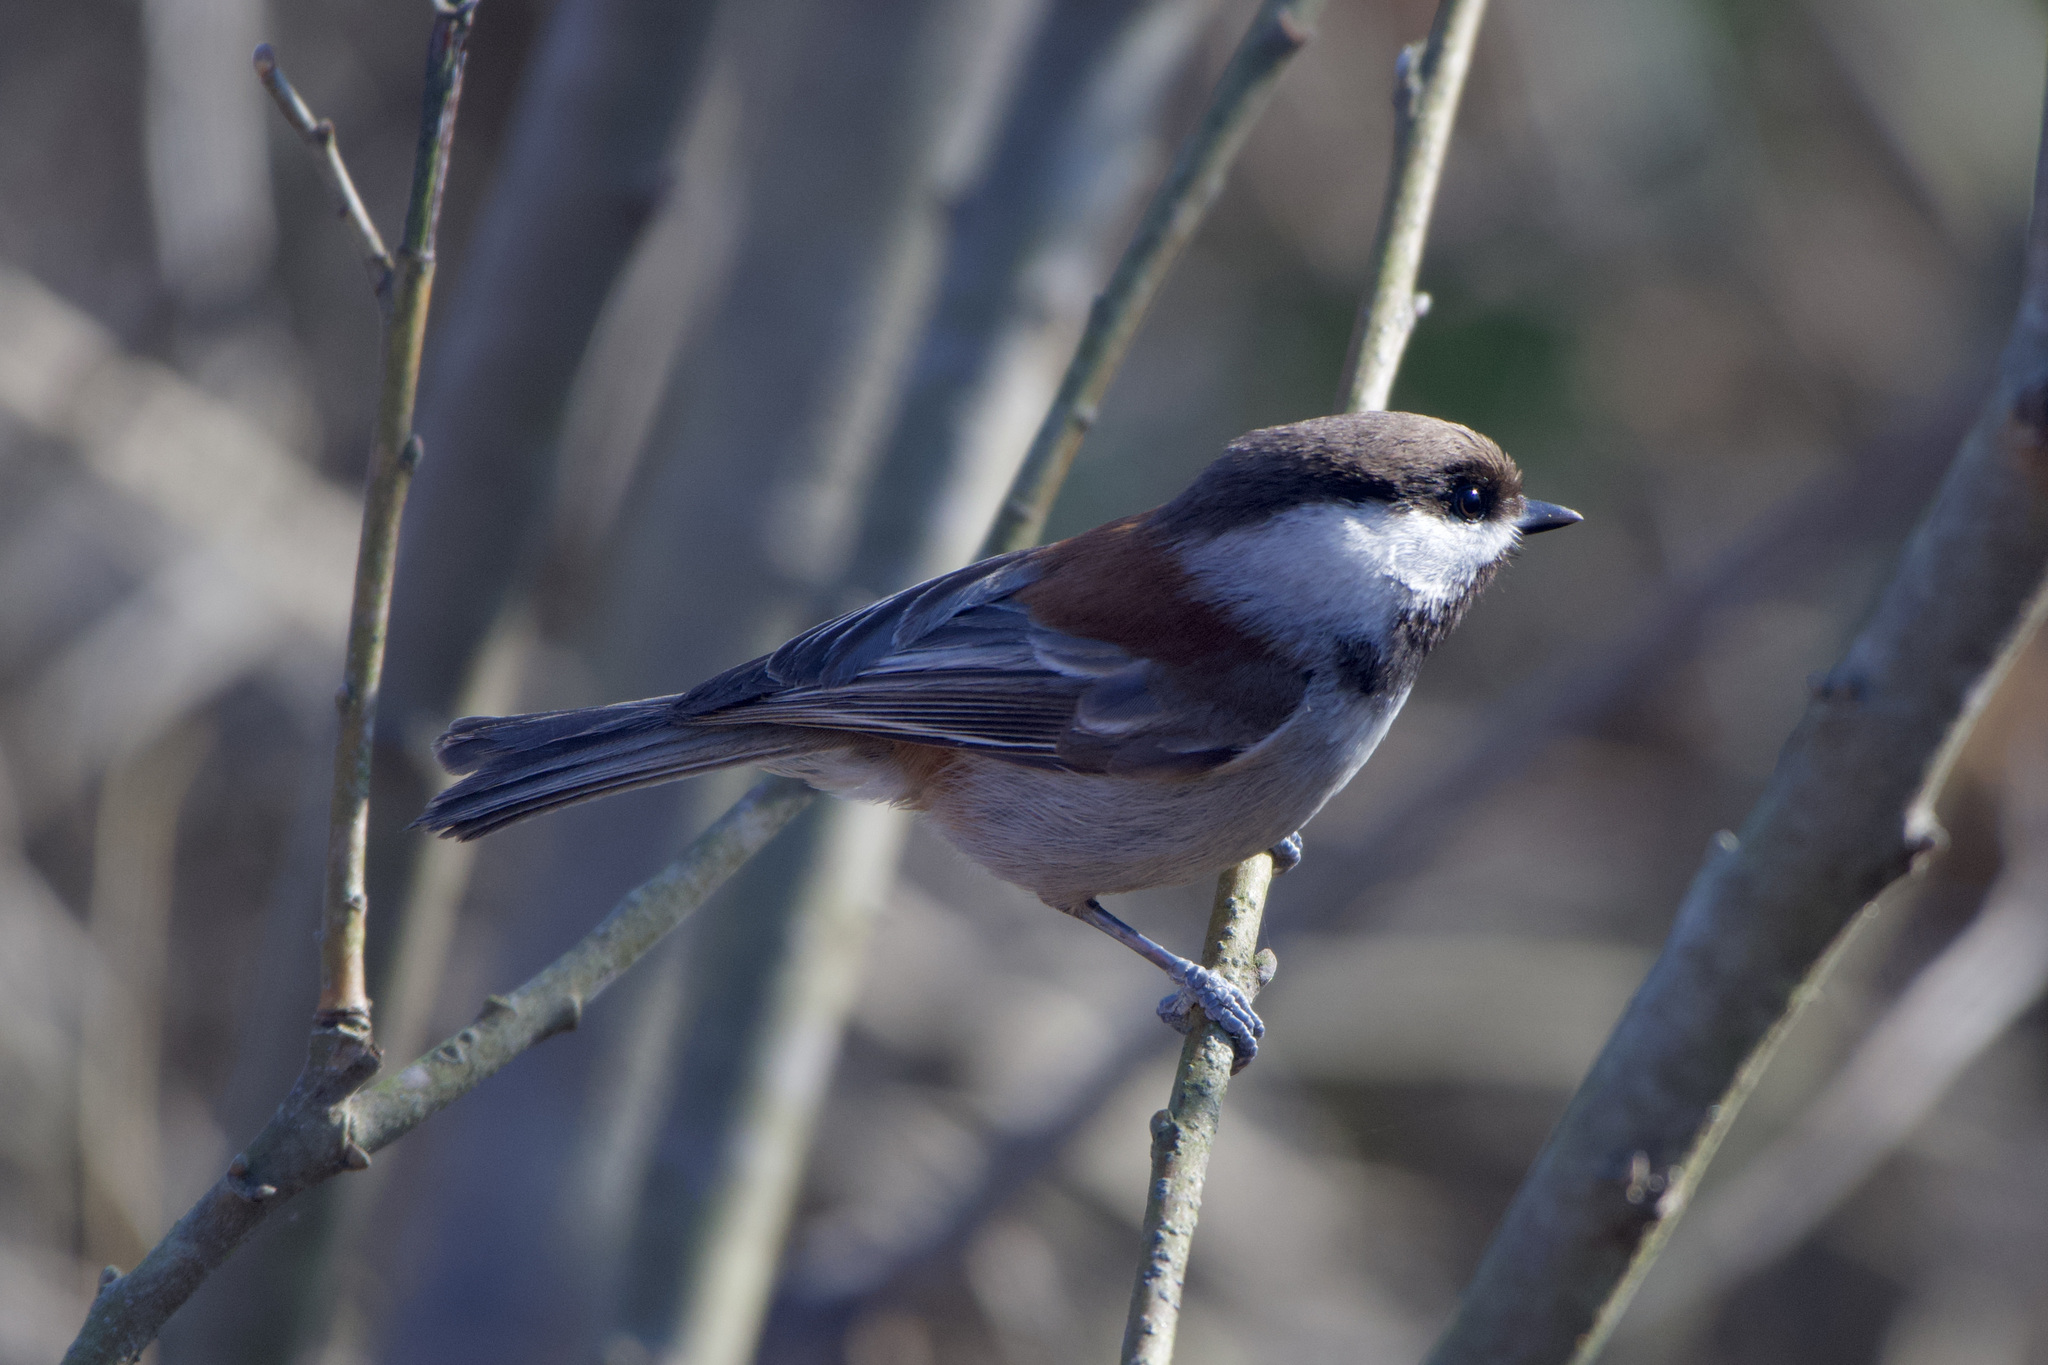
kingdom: Animalia
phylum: Chordata
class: Aves
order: Passeriformes
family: Paridae
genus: Poecile
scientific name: Poecile rufescens
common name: Chestnut-backed chickadee
